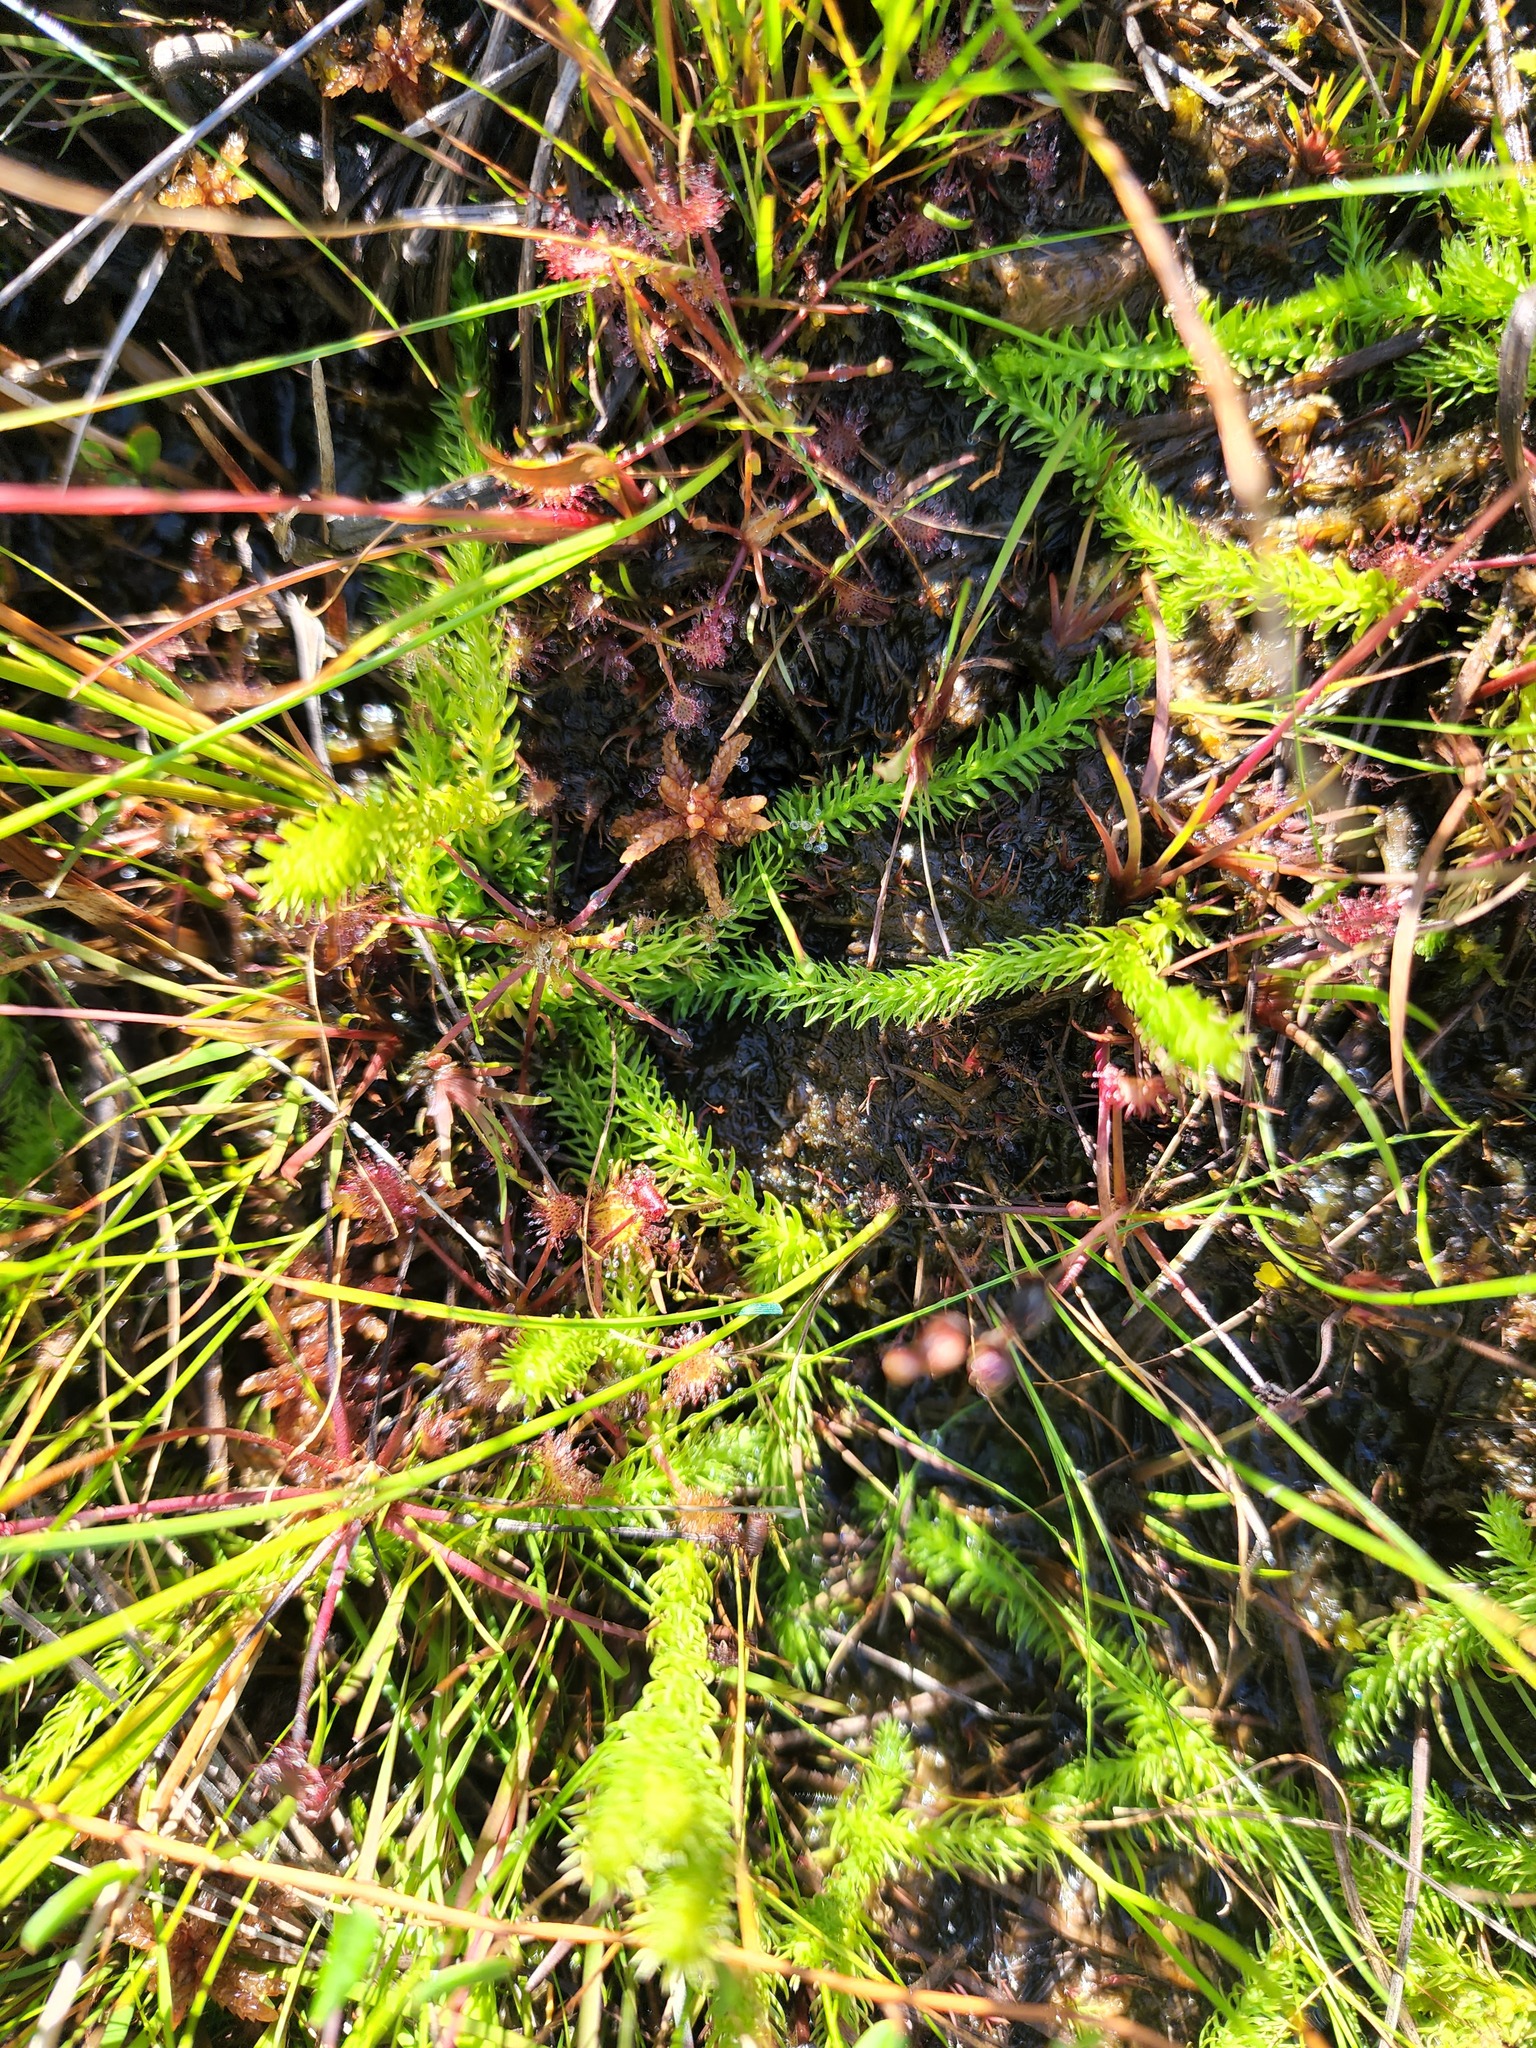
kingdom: Plantae
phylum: Tracheophyta
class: Lycopodiopsida
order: Lycopodiales
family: Lycopodiaceae
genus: Lycopodiella
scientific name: Lycopodiella inundata
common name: Marsh clubmoss
